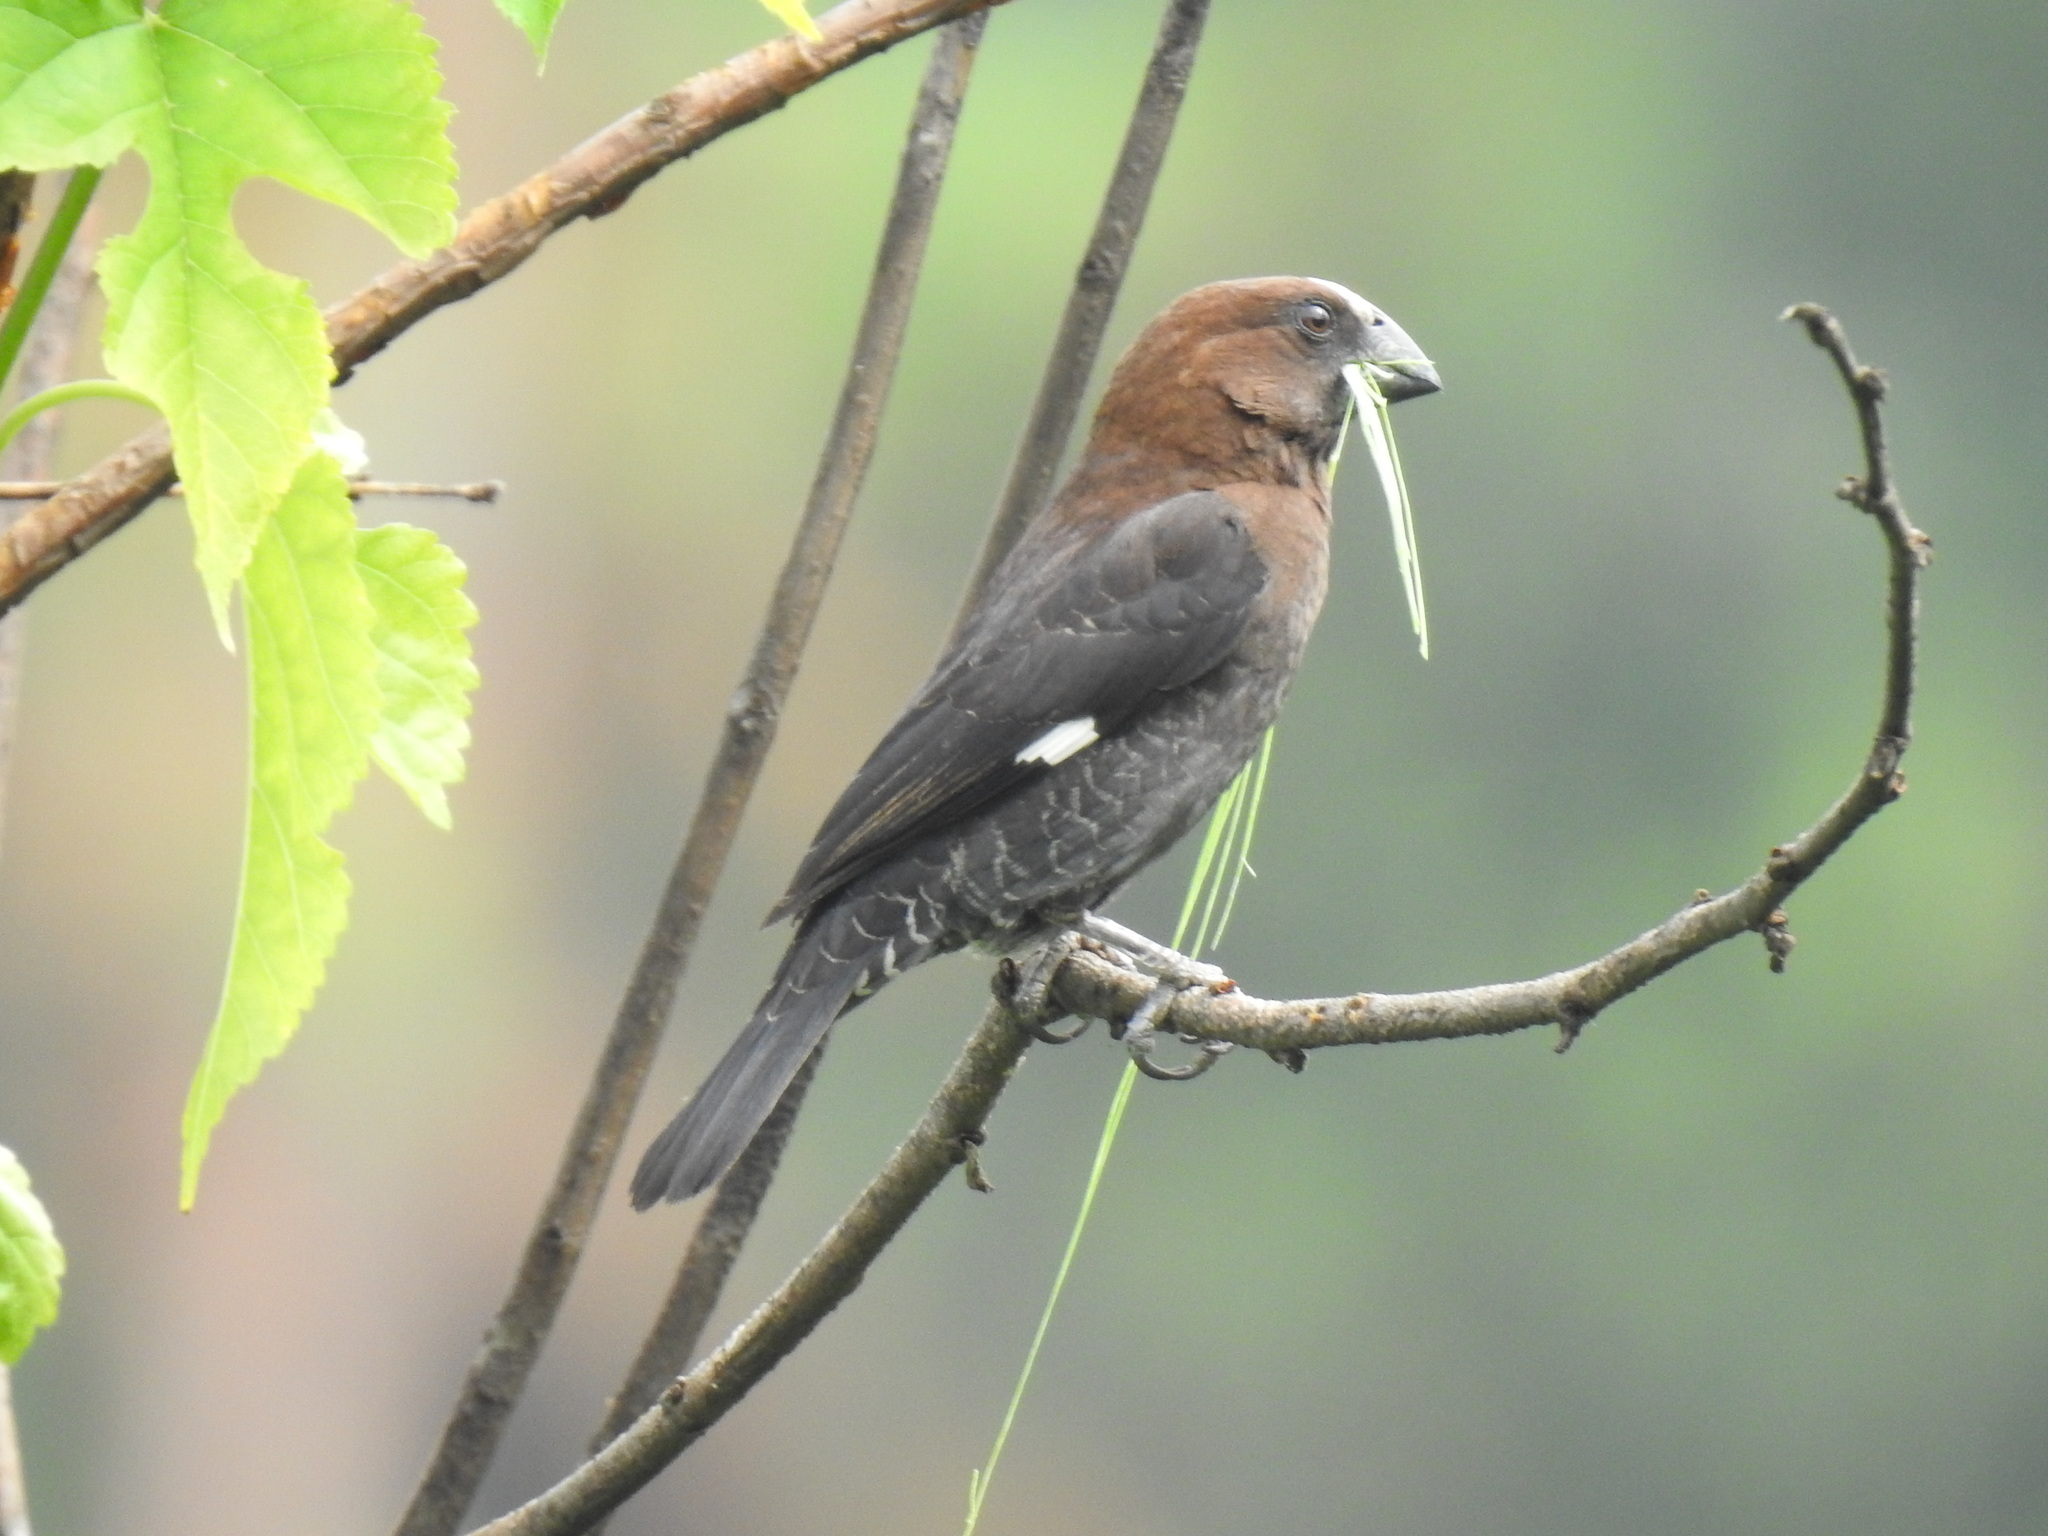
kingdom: Animalia
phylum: Chordata
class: Aves
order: Passeriformes
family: Ploceidae
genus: Amblyospiza
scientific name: Amblyospiza albifrons
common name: Thick-billed weaver
